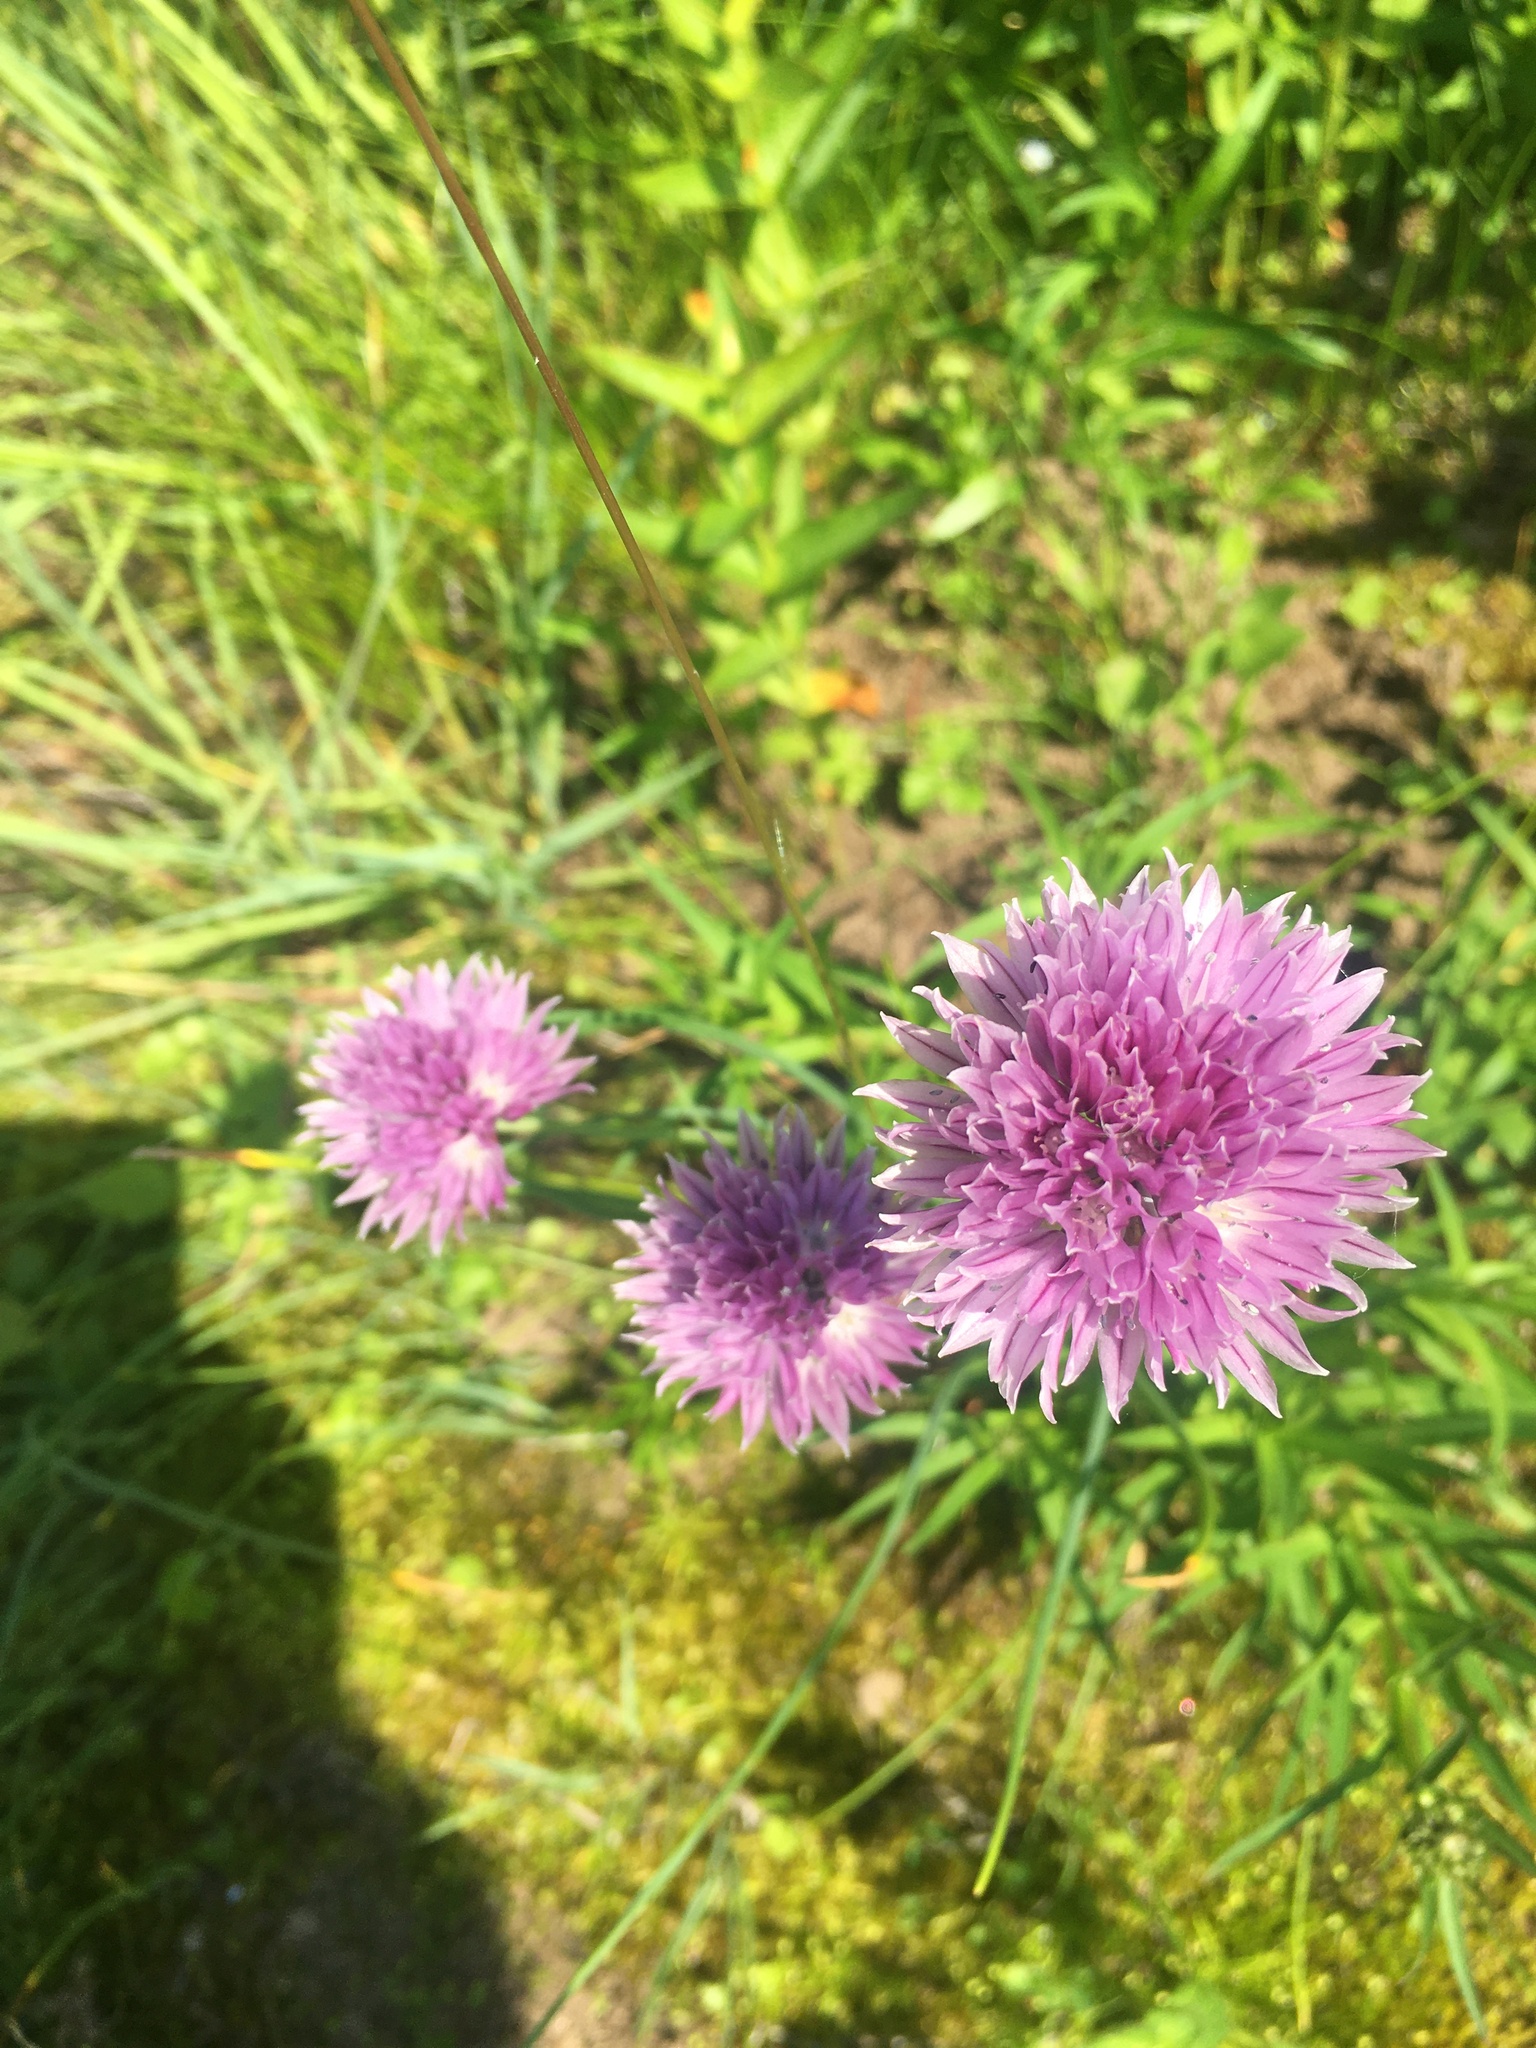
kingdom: Plantae
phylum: Tracheophyta
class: Liliopsida
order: Asparagales
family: Amaryllidaceae
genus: Allium
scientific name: Allium schoenoprasum
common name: Chives
